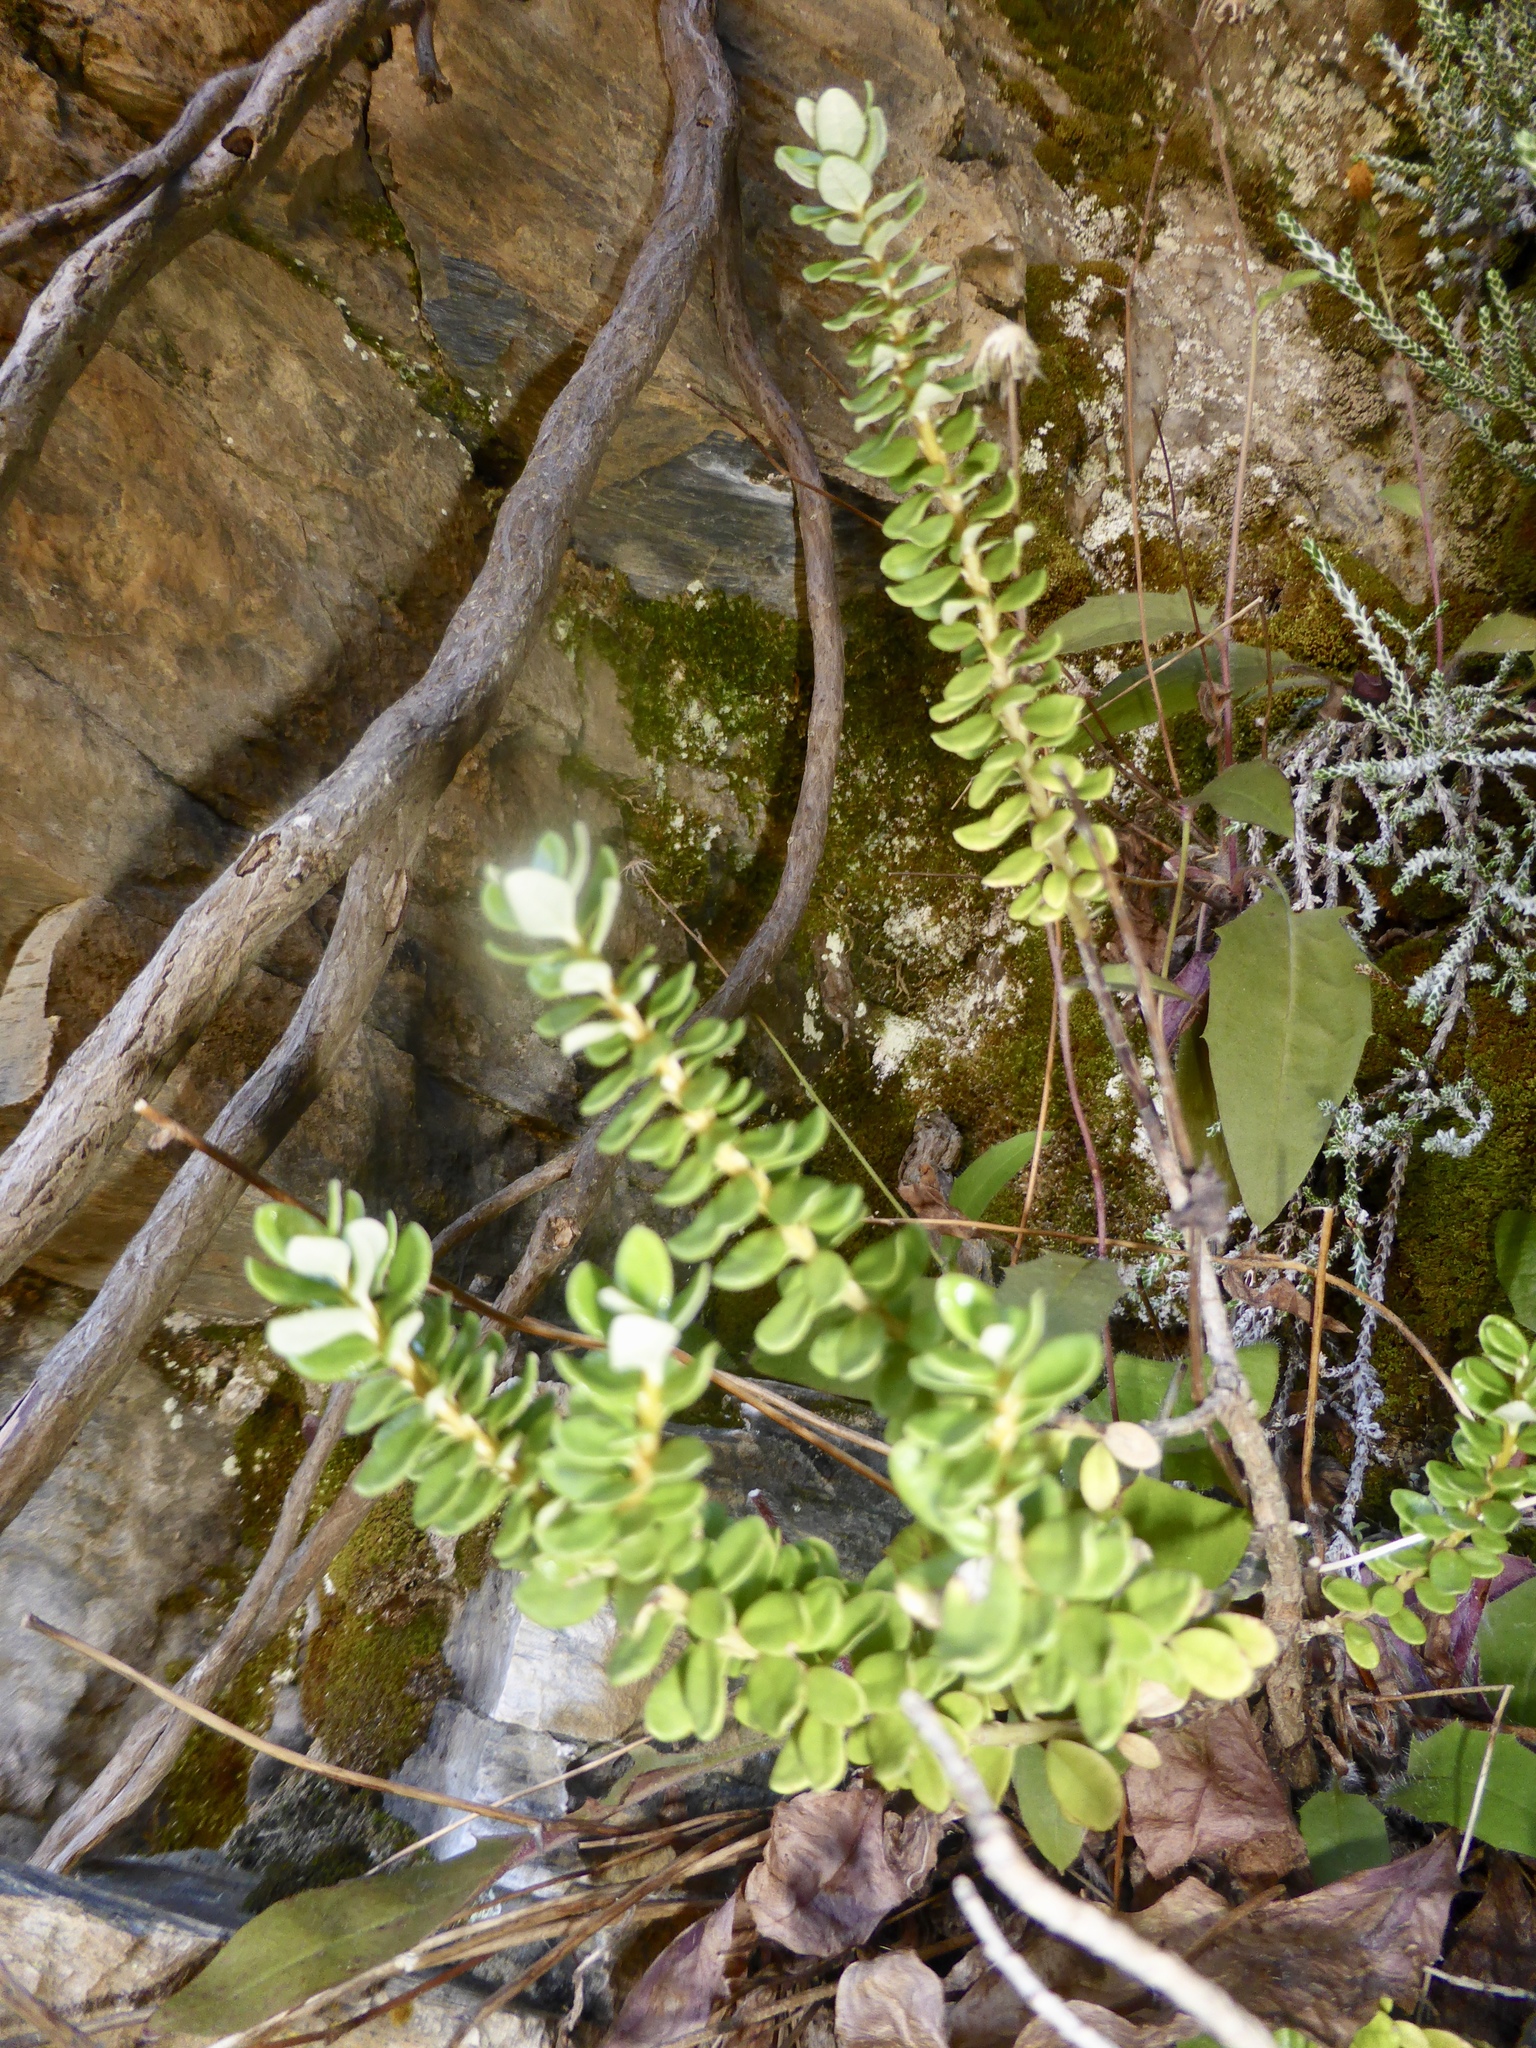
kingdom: Plantae
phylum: Tracheophyta
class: Magnoliopsida
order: Asterales
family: Asteraceae
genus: Olearia
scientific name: Olearia nummularifolia
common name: Sticky daisybush
